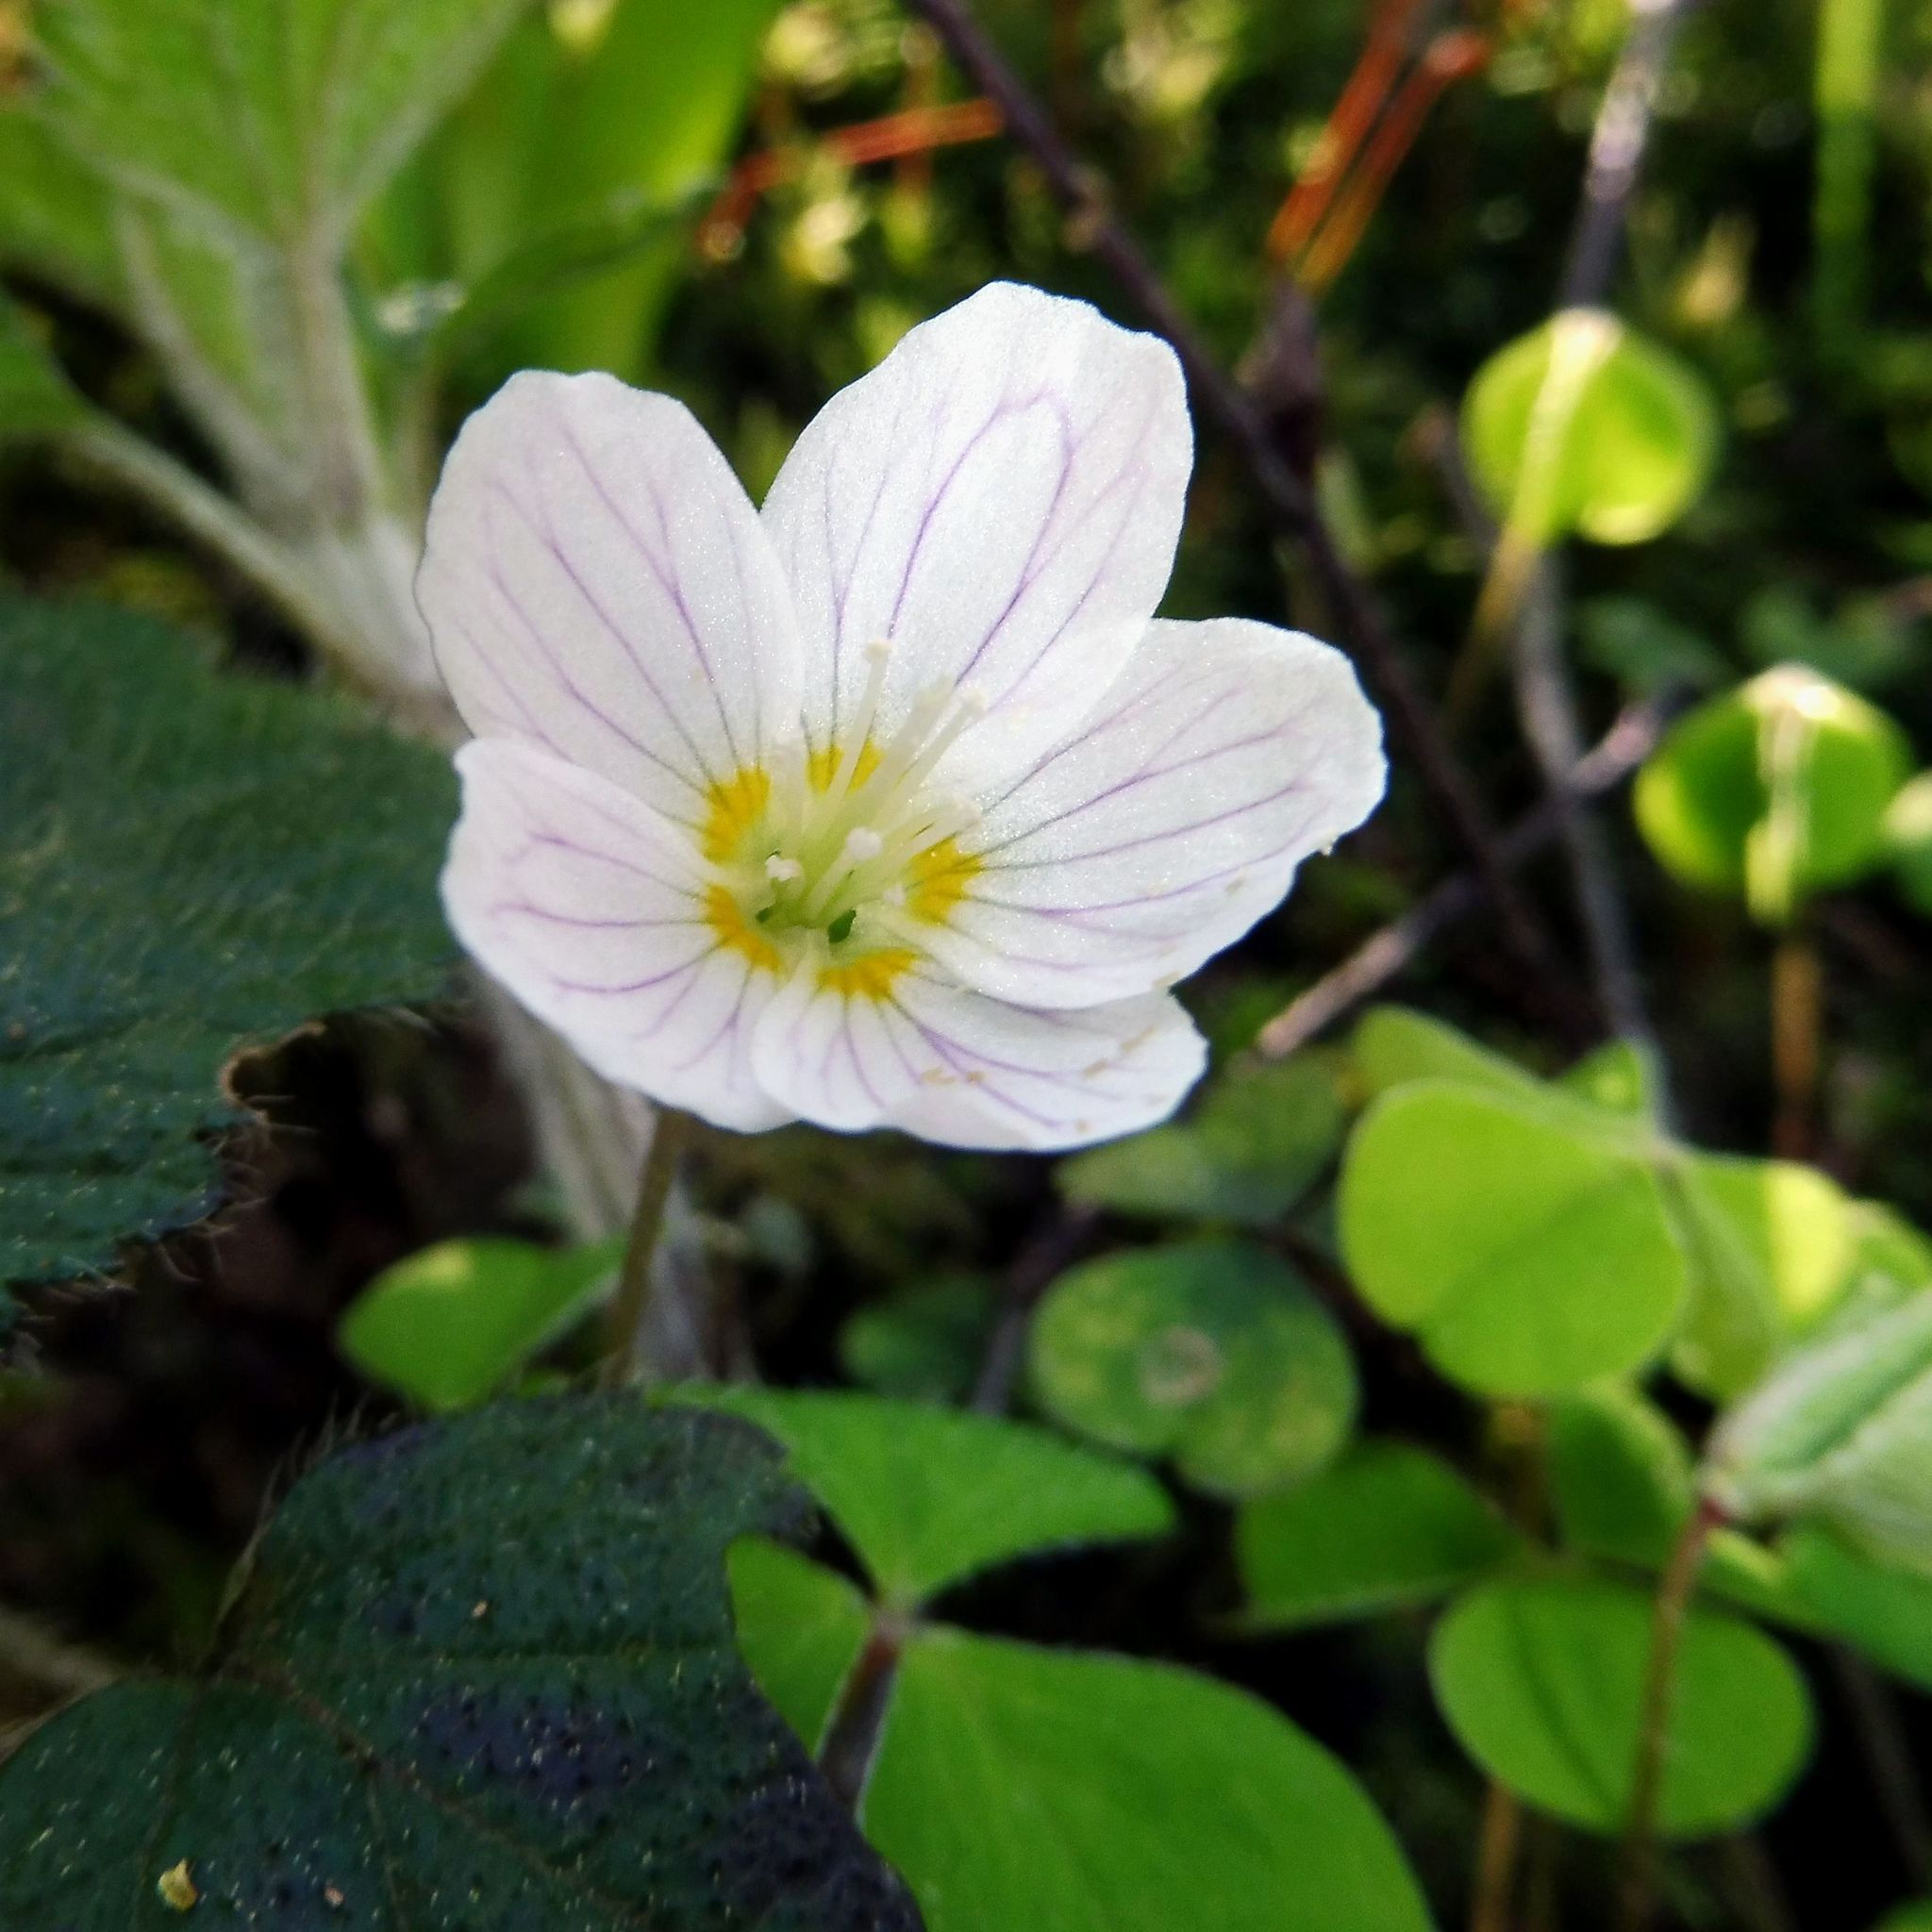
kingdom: Plantae
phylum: Tracheophyta
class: Magnoliopsida
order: Oxalidales
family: Oxalidaceae
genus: Oxalis
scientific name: Oxalis acetosella
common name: Wood-sorrel
